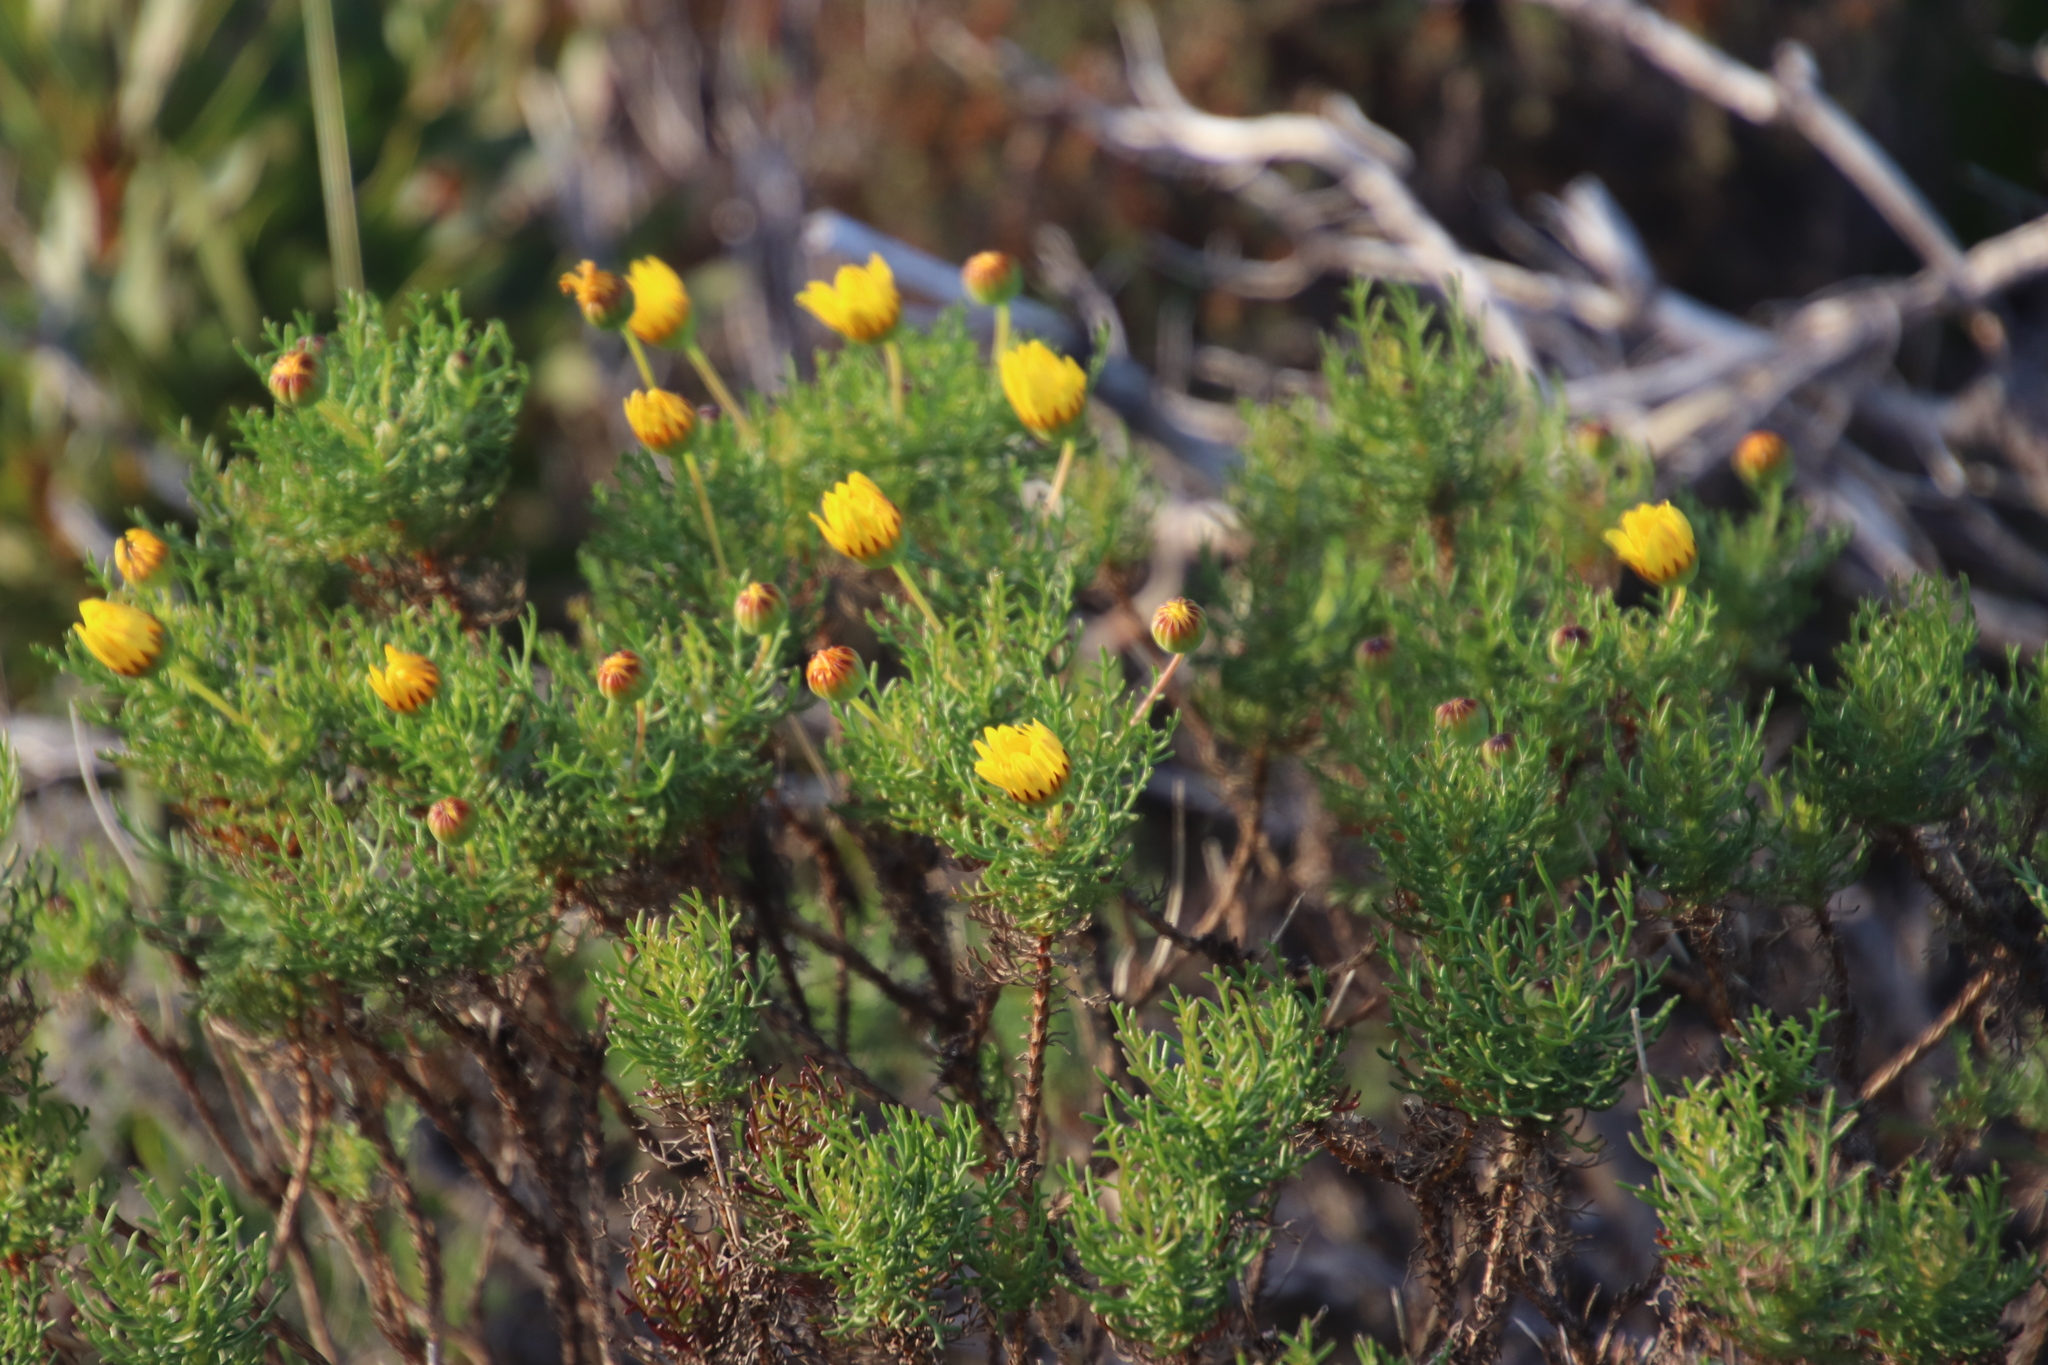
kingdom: Plantae
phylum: Tracheophyta
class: Magnoliopsida
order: Asterales
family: Asteraceae
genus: Euryops
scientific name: Euryops abrotanifolius
